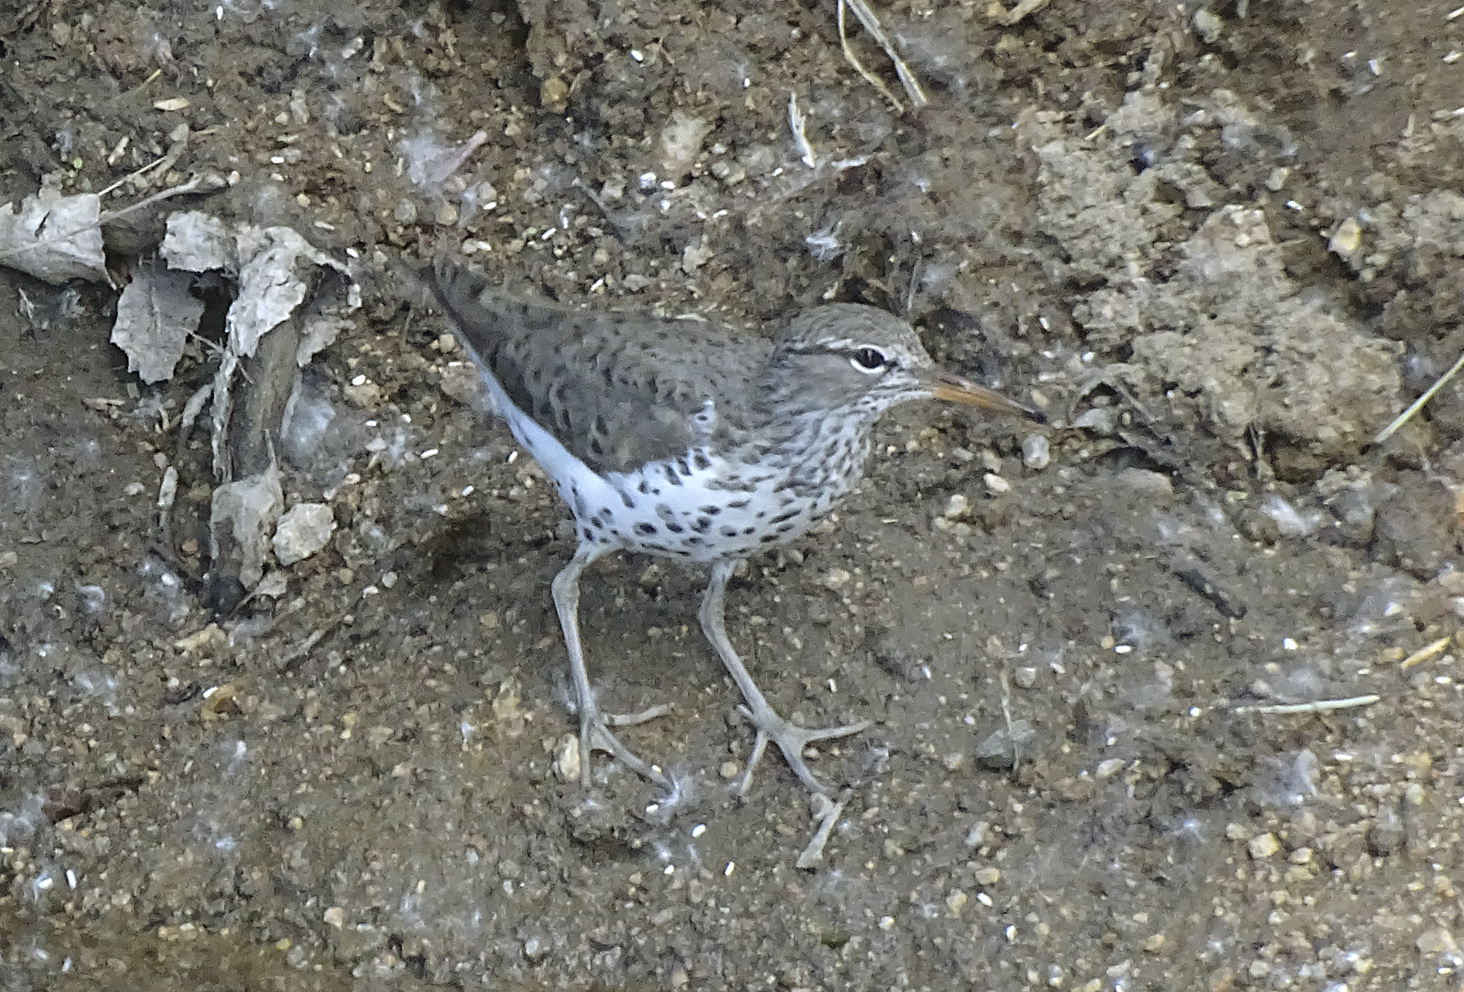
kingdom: Animalia
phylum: Chordata
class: Aves
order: Charadriiformes
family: Scolopacidae
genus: Actitis
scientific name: Actitis macularius
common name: Spotted sandpiper
